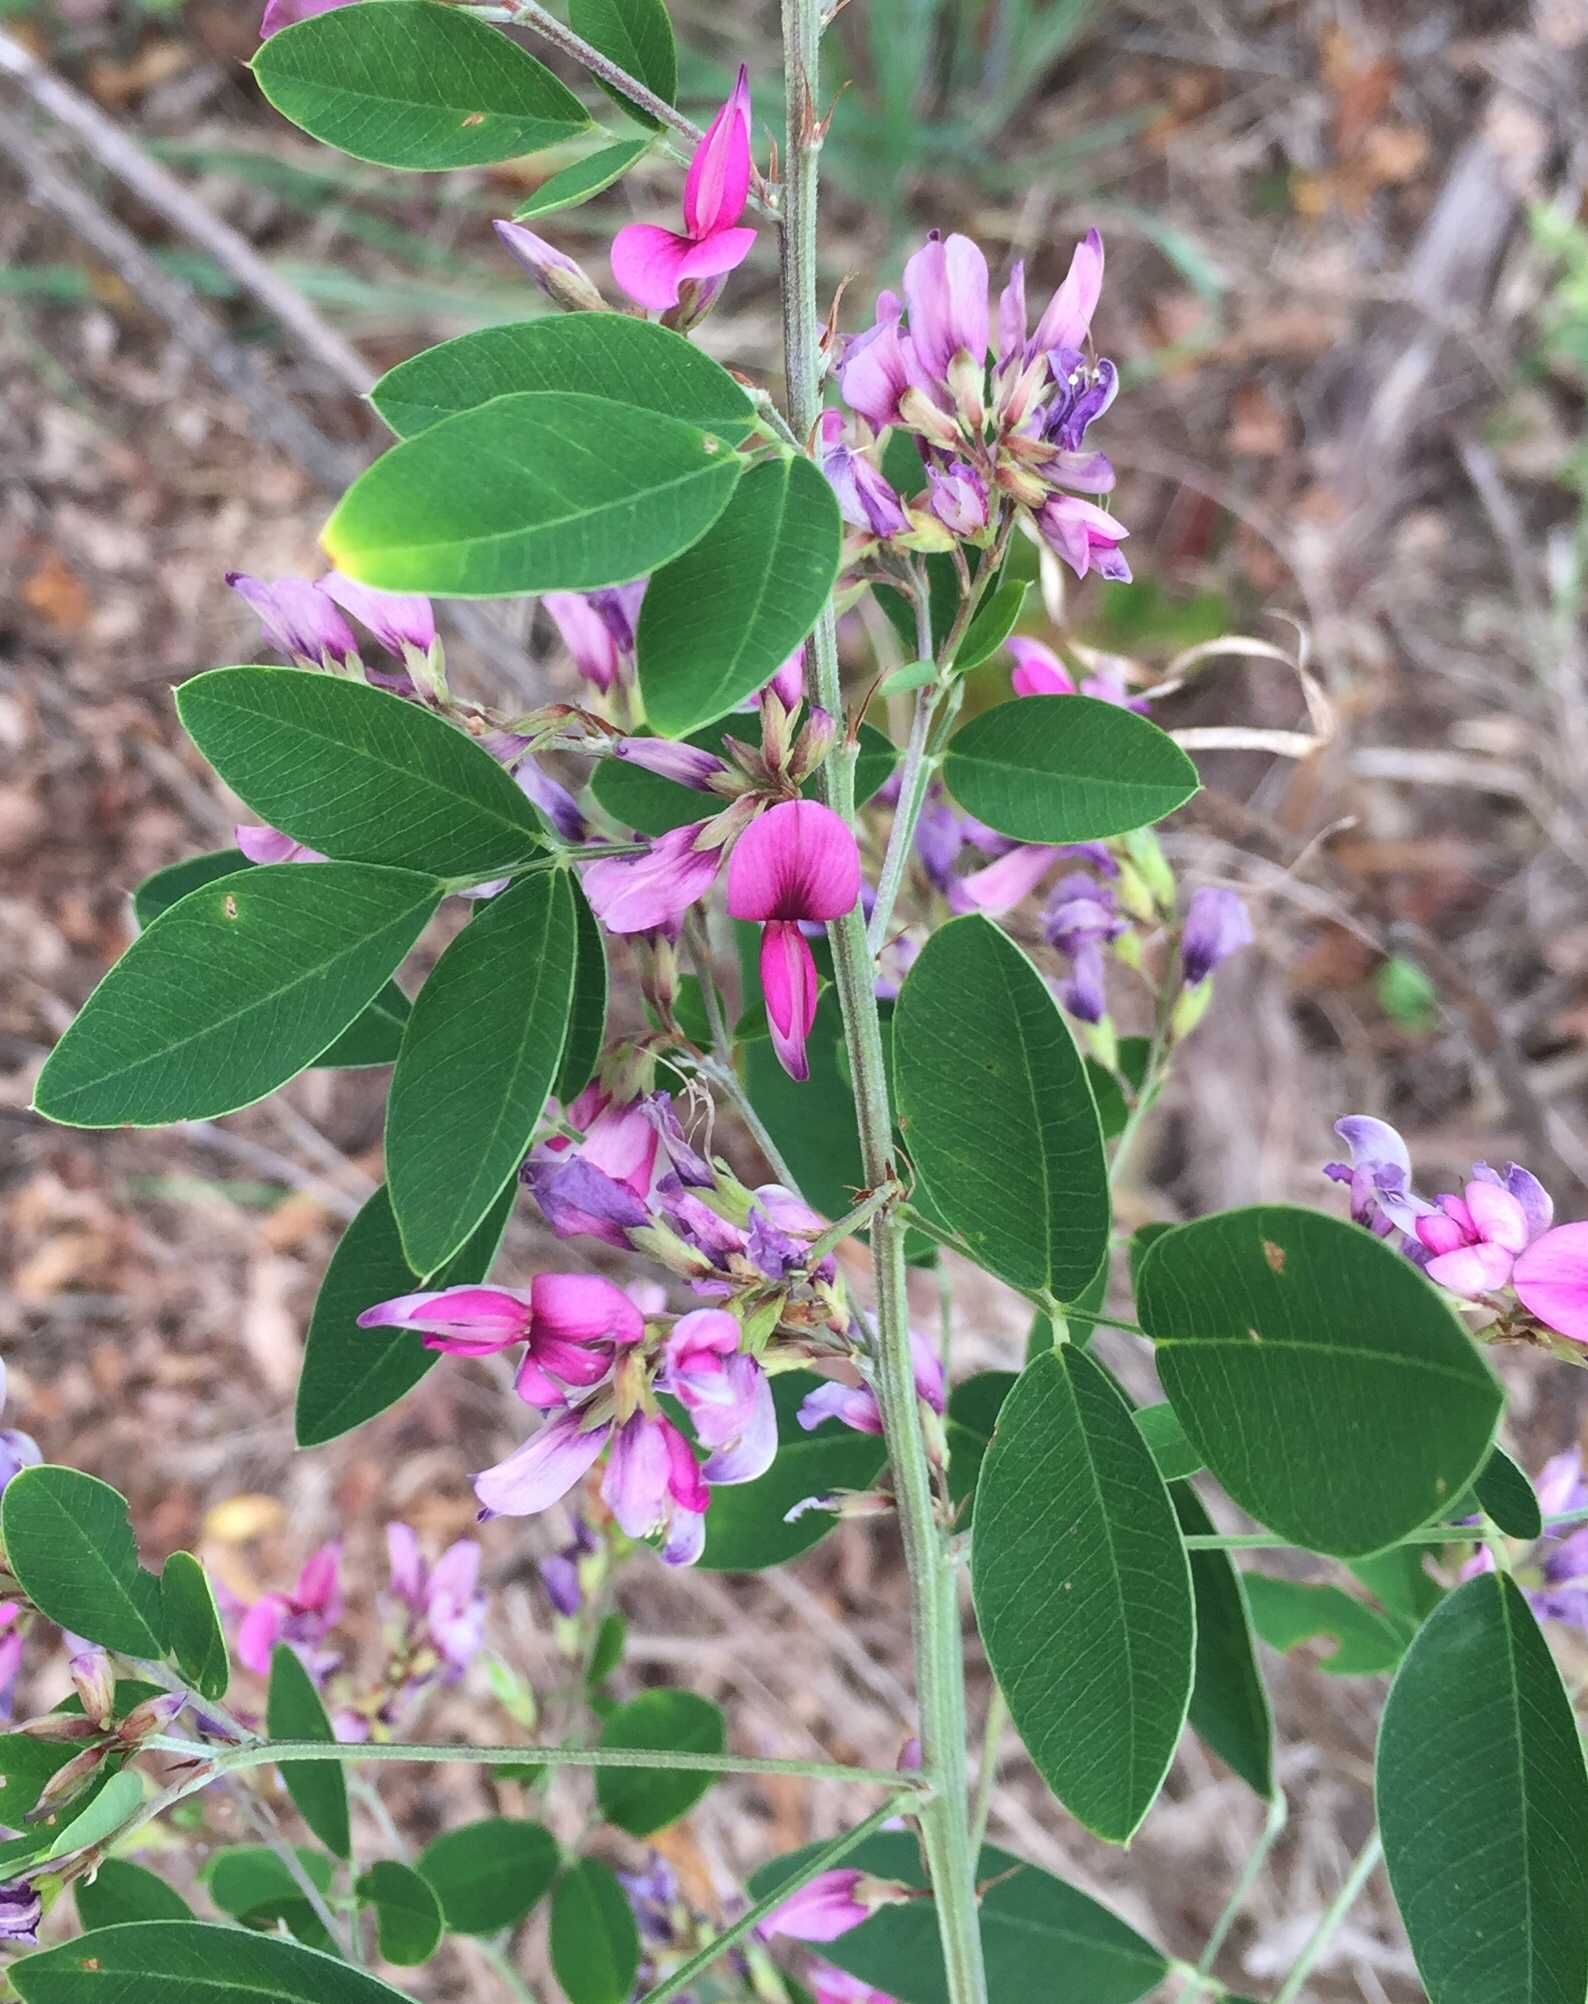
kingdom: Plantae
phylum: Tracheophyta
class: Magnoliopsida
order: Fabales
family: Fabaceae
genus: Lespedeza
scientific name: Lespedeza bicolor
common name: Shrub lespedeza
